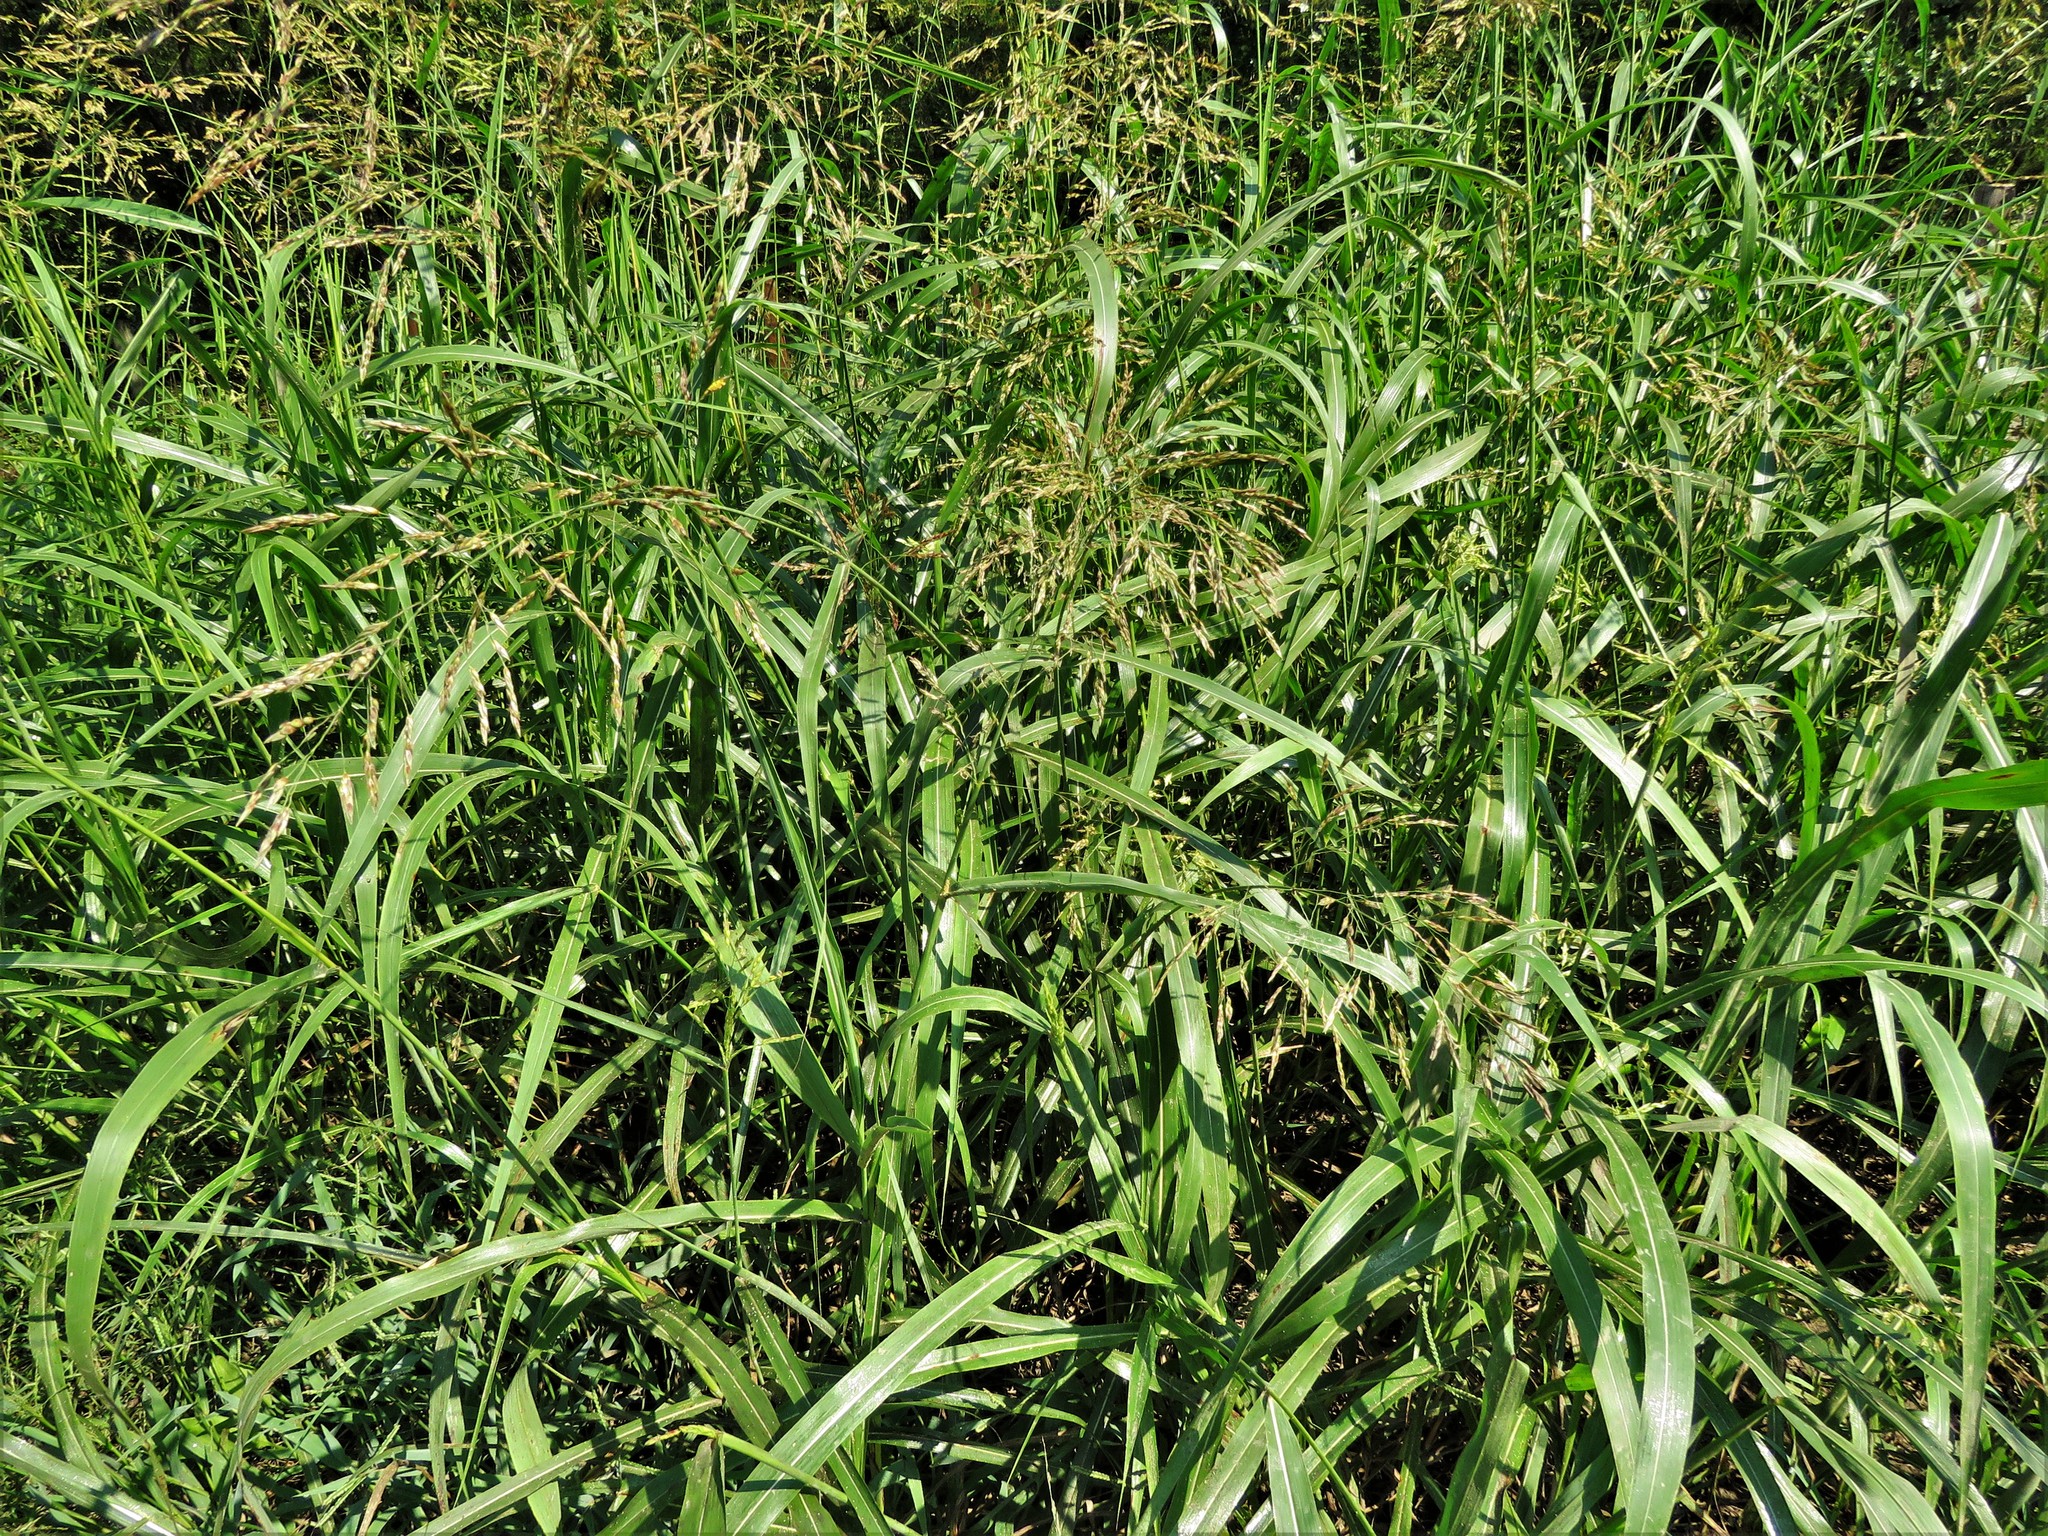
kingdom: Plantae
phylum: Tracheophyta
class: Liliopsida
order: Poales
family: Poaceae
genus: Sorghum
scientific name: Sorghum halepense
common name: Johnson-grass
